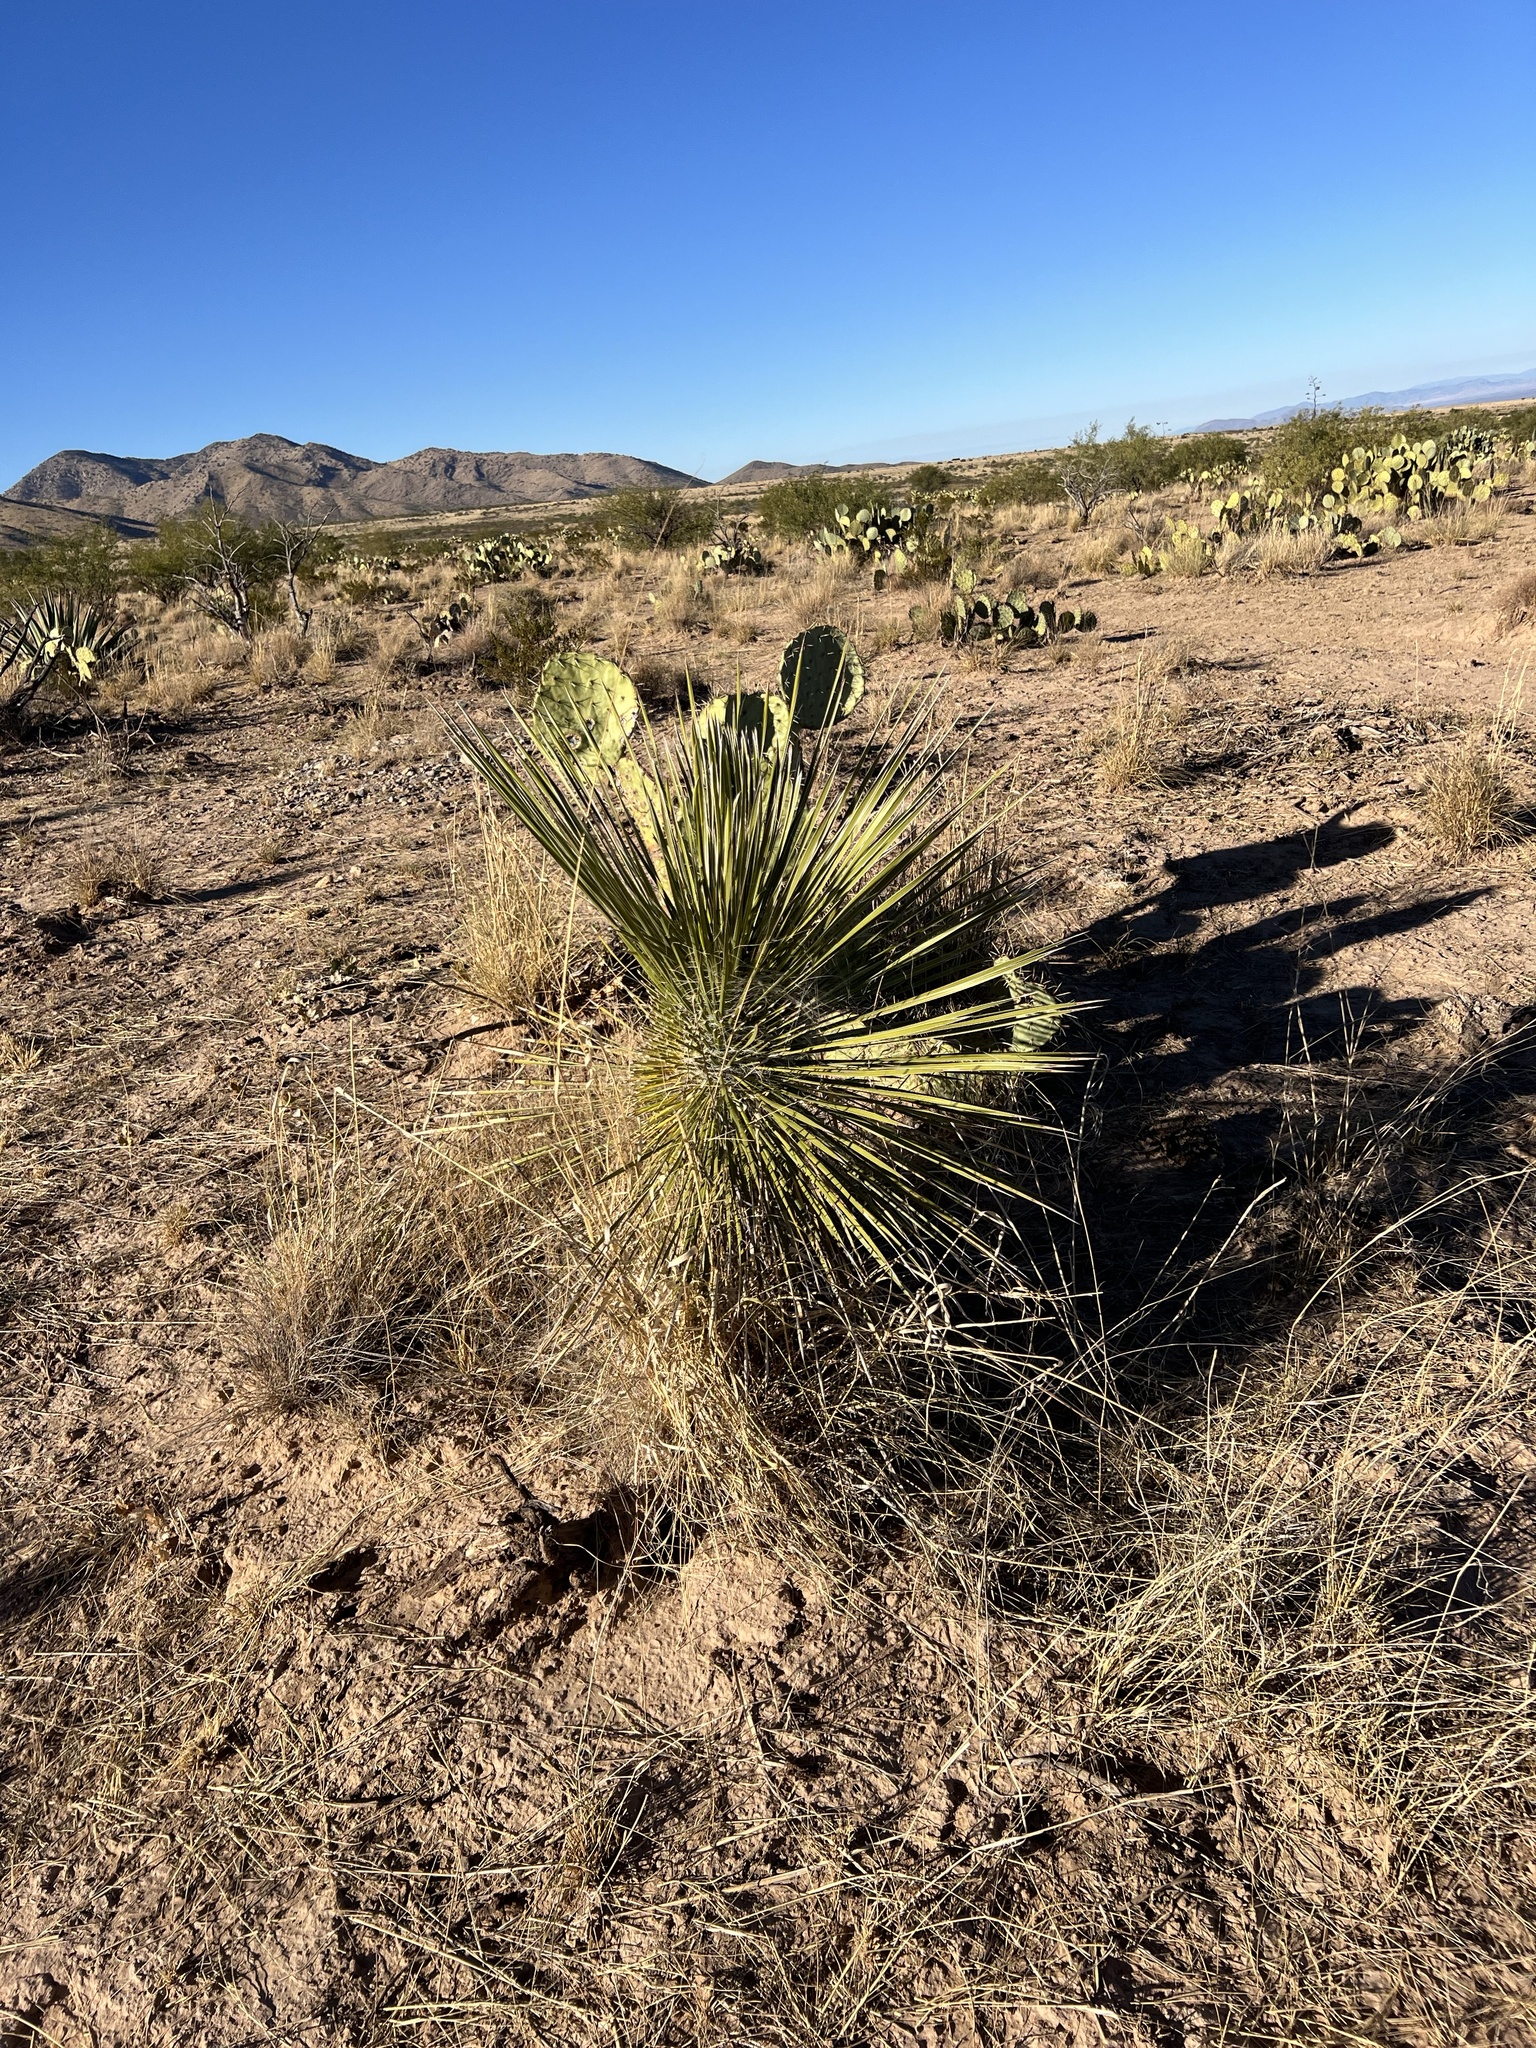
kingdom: Plantae
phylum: Tracheophyta
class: Liliopsida
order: Asparagales
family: Asparagaceae
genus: Yucca
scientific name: Yucca elata
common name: Palmella
